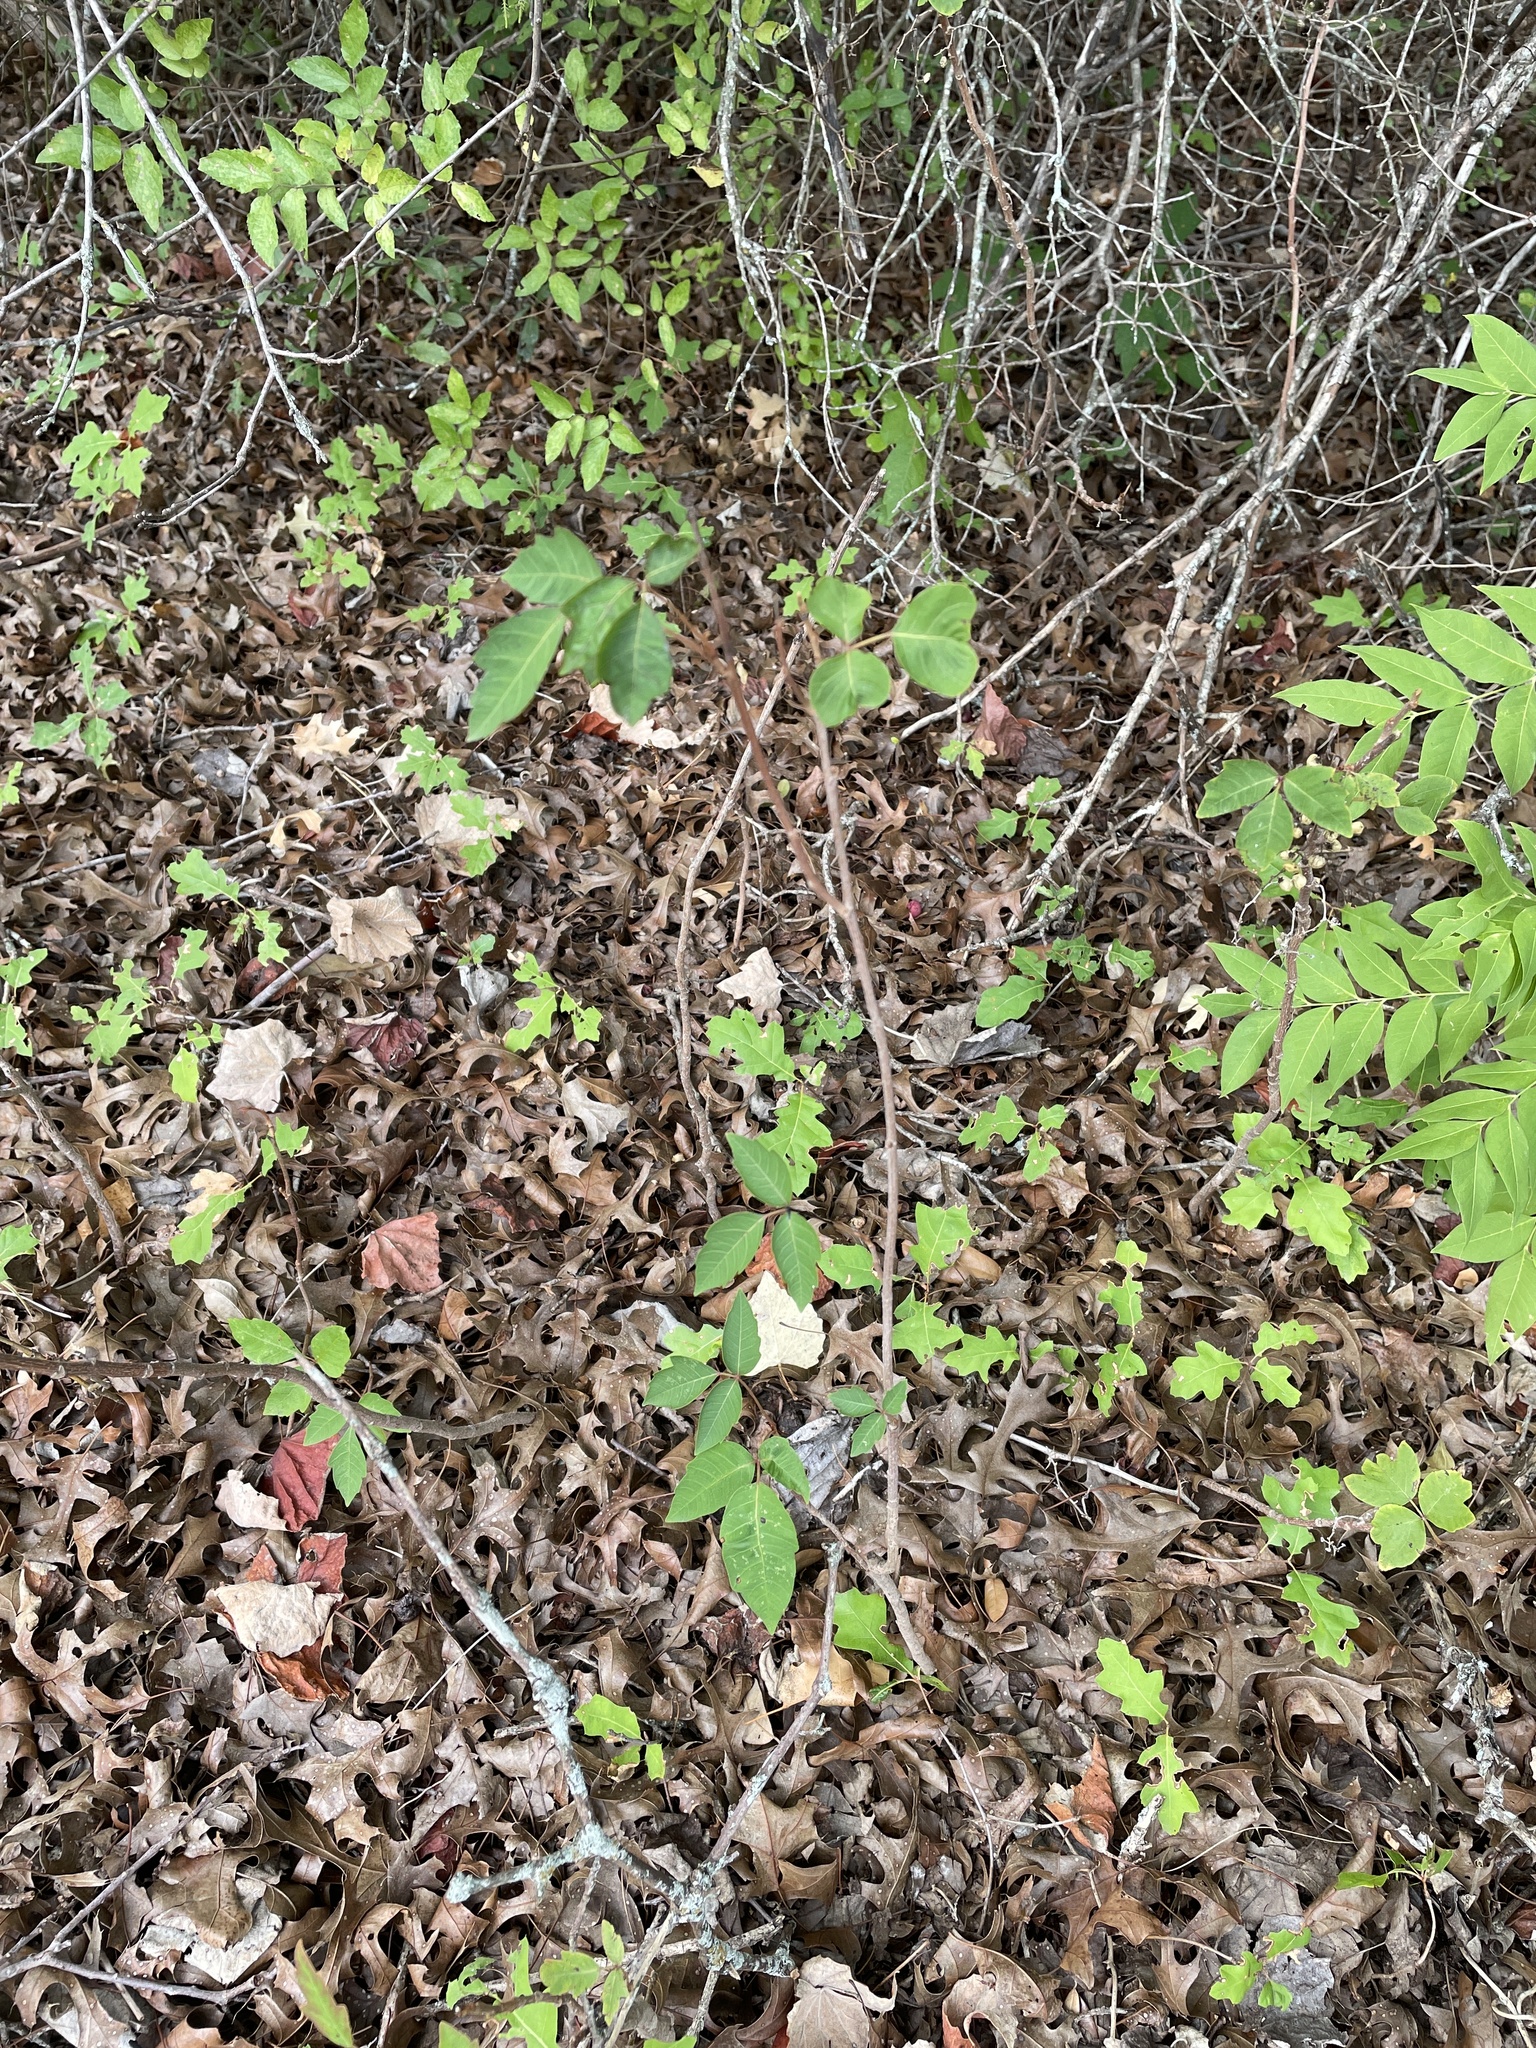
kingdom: Plantae
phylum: Tracheophyta
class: Magnoliopsida
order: Sapindales
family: Anacardiaceae
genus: Toxicodendron
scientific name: Toxicodendron radicans
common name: Poison ivy
